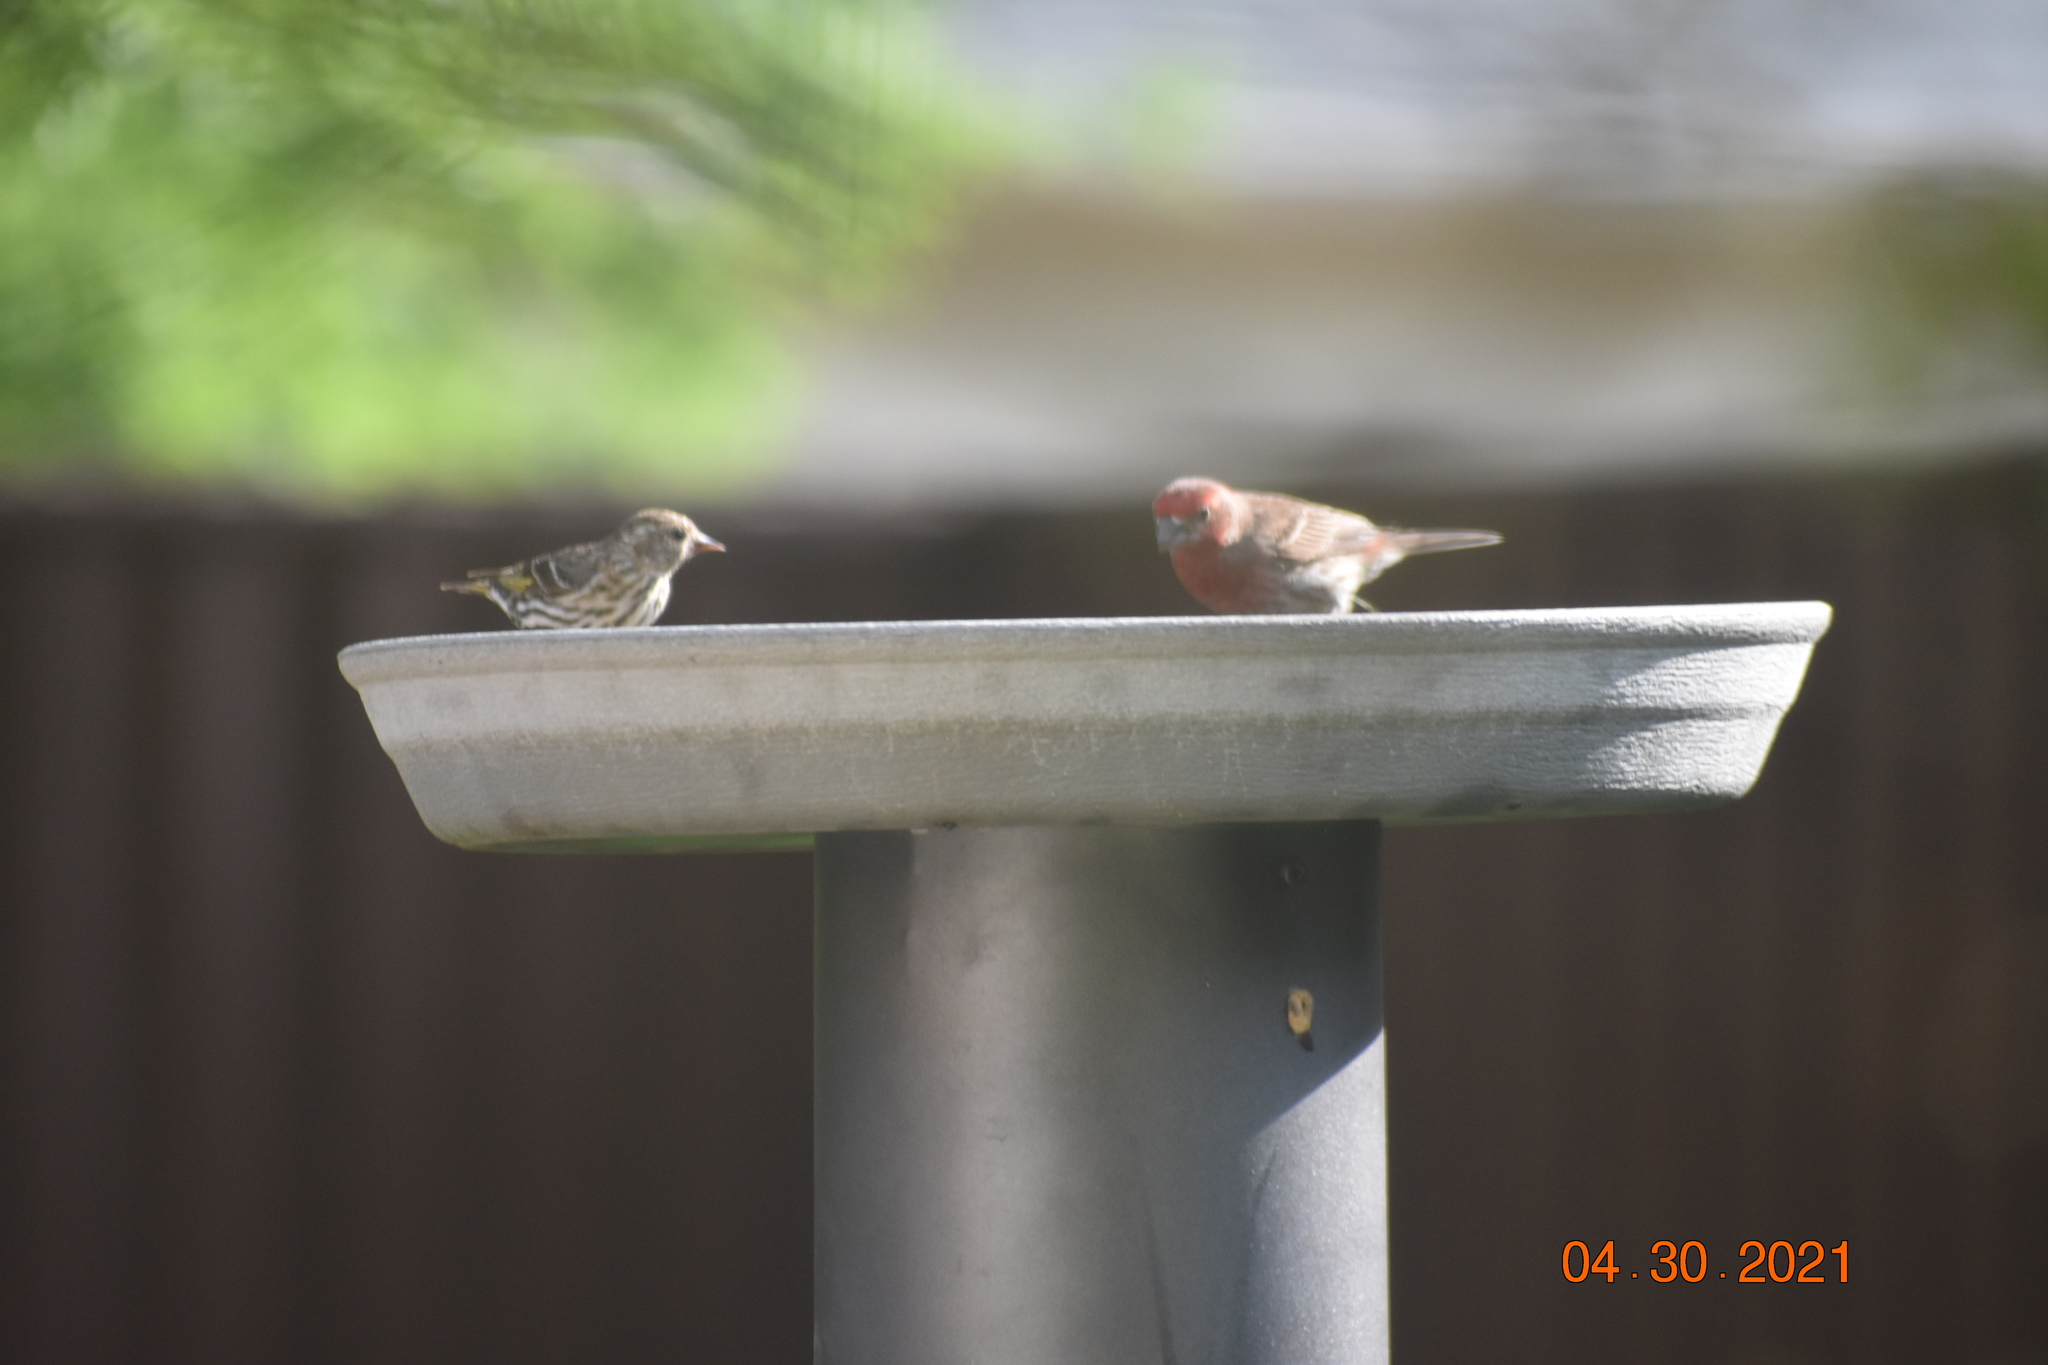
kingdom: Animalia
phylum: Chordata
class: Aves
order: Passeriformes
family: Fringillidae
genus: Haemorhous
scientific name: Haemorhous mexicanus
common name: House finch
